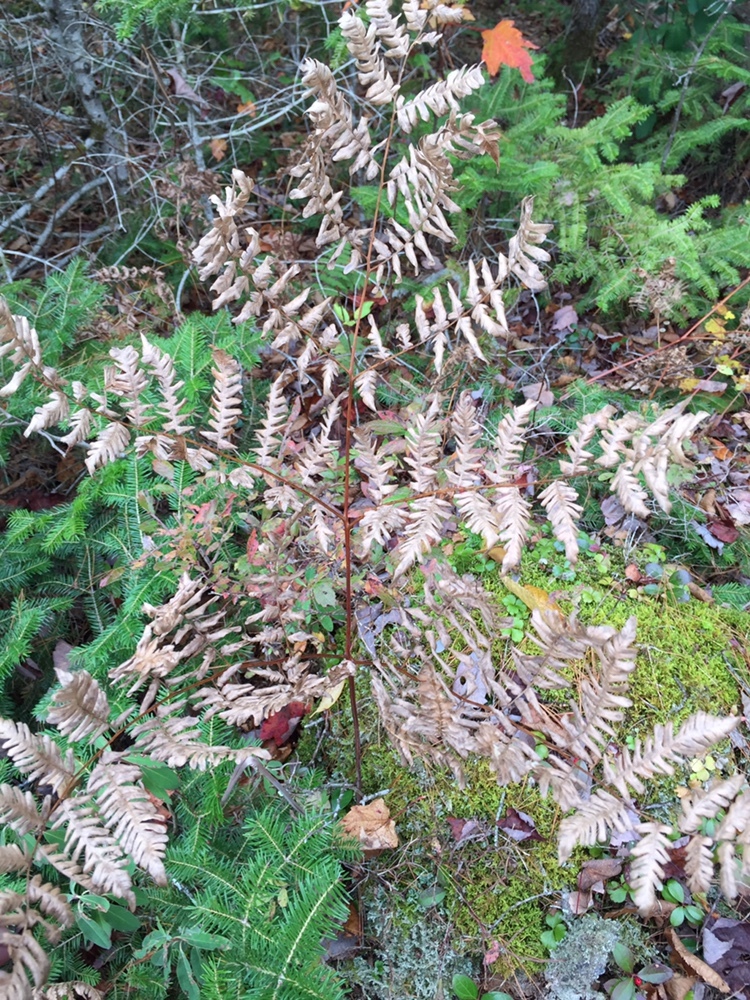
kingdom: Plantae
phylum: Tracheophyta
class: Polypodiopsida
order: Polypodiales
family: Dennstaedtiaceae
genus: Pteridium
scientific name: Pteridium aquilinum
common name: Bracken
